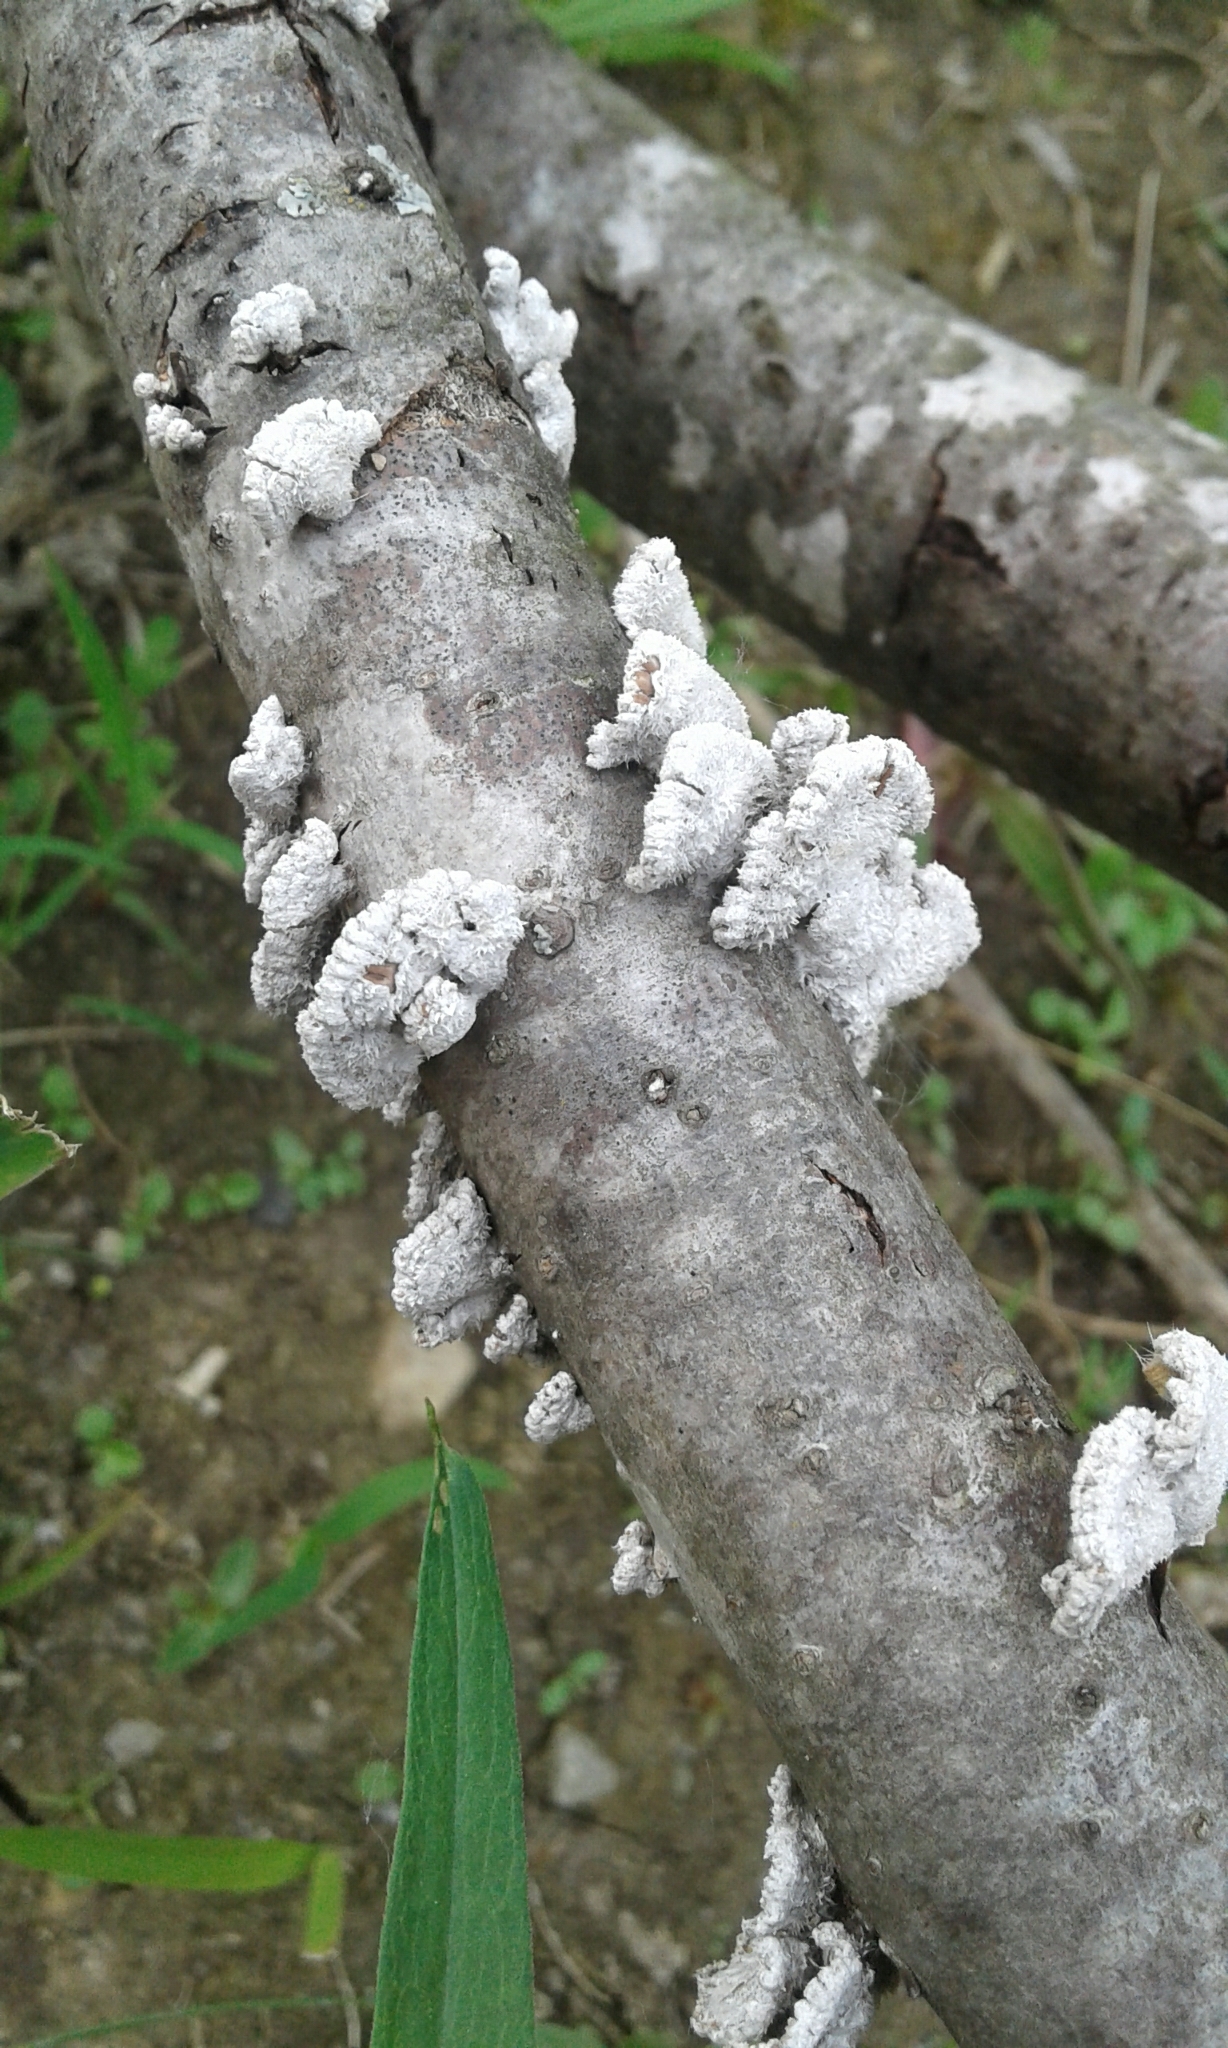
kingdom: Fungi
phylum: Basidiomycota
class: Agaricomycetes
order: Agaricales
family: Schizophyllaceae
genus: Schizophyllum
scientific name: Schizophyllum commune
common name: Common porecrust
